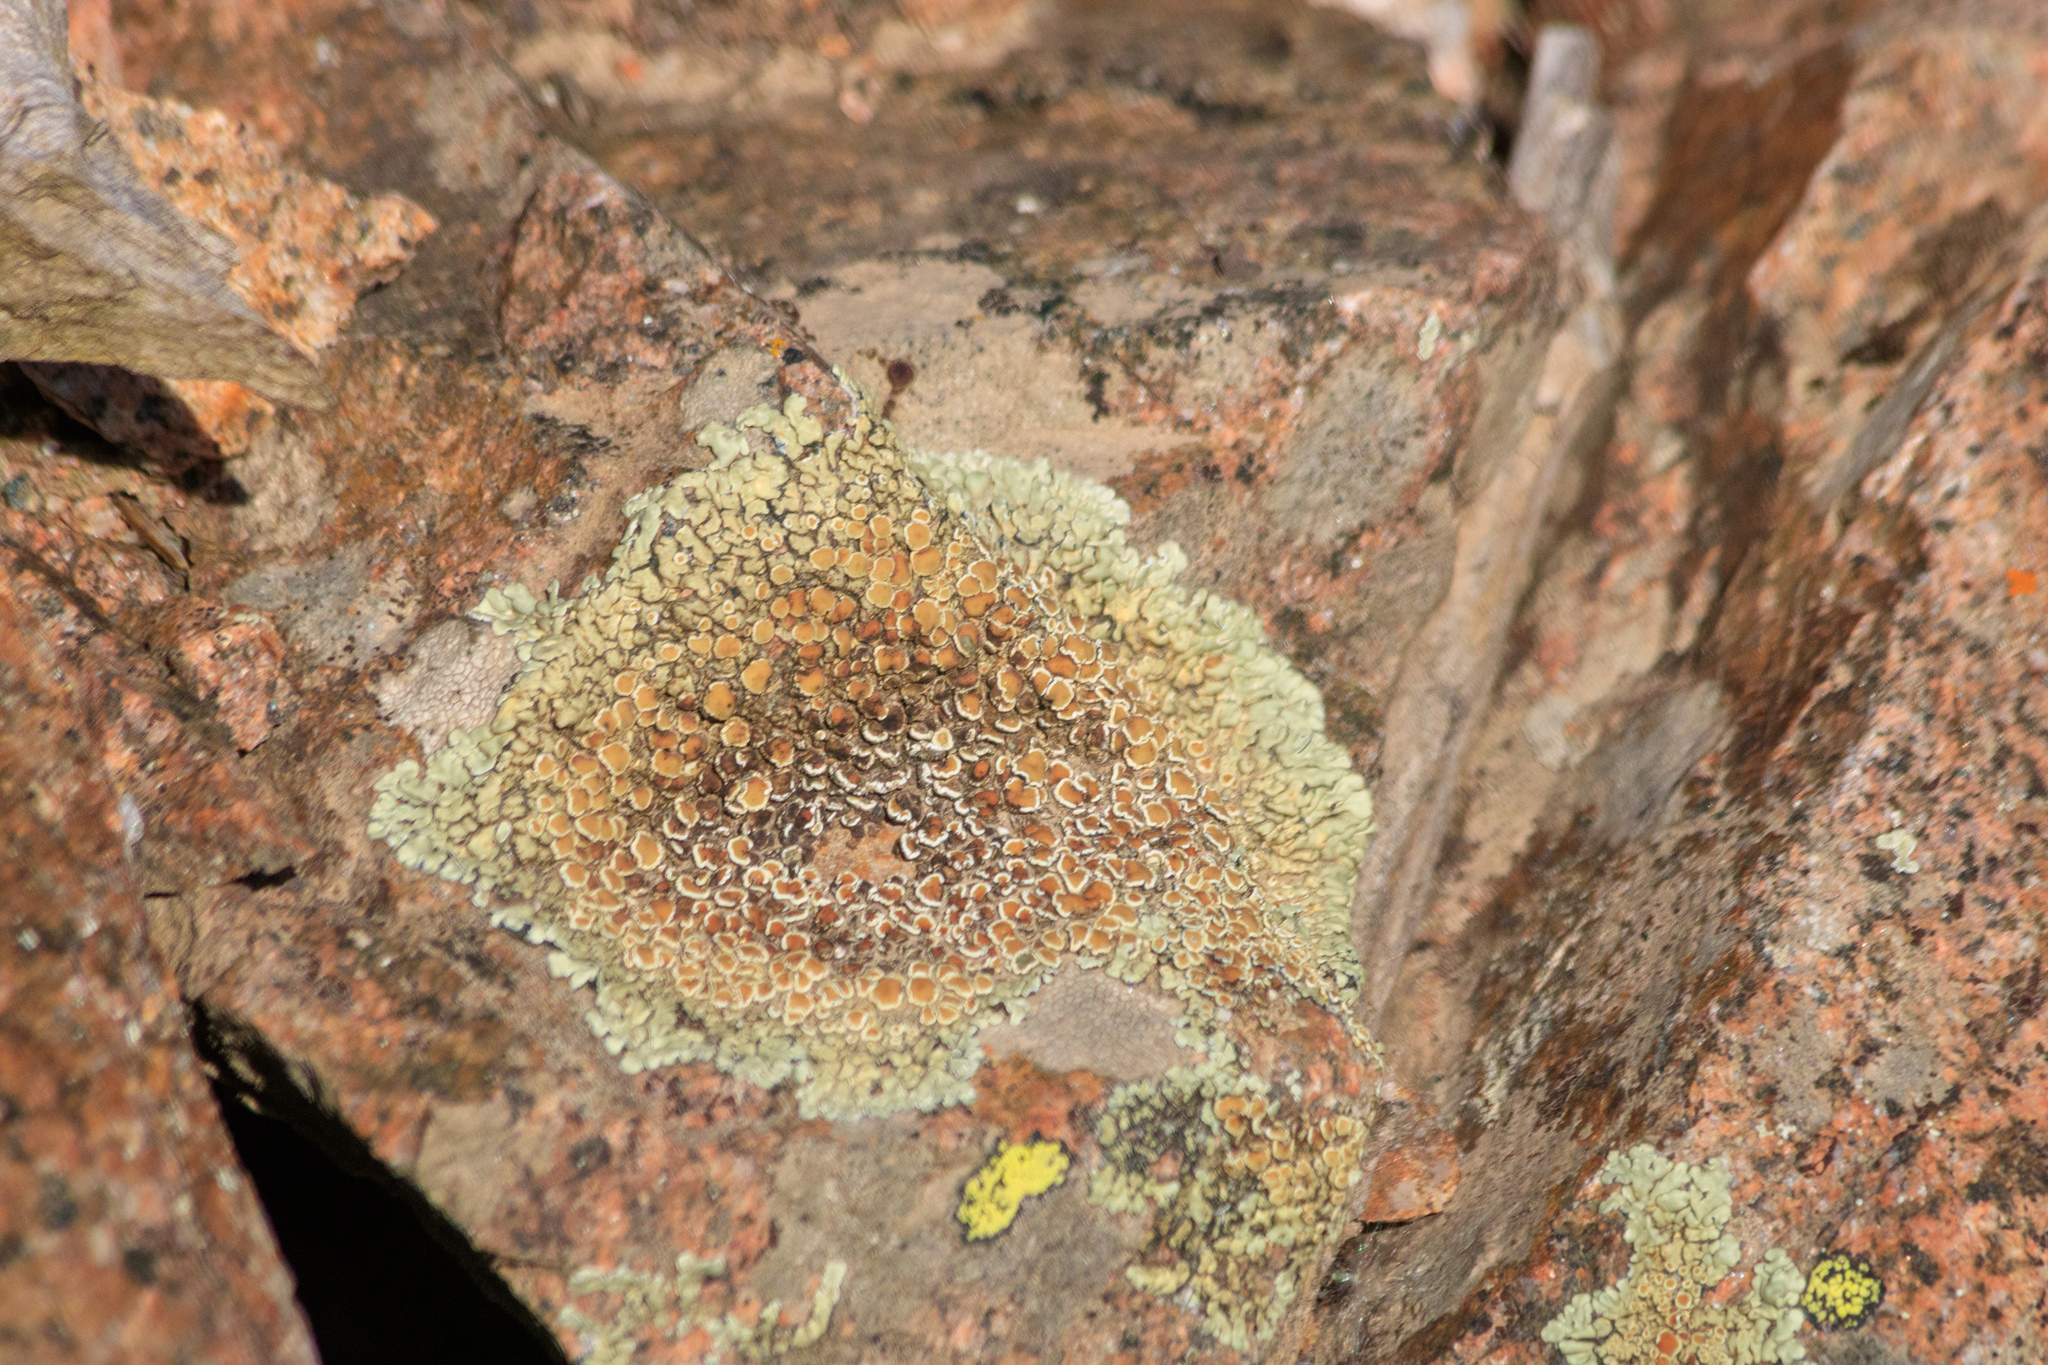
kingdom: Fungi
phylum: Ascomycota
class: Lecanoromycetes
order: Lecanorales
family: Lecanoraceae
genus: Protoparmeliopsis
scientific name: Protoparmeliopsis muralis
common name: Stonewall rim lichen
